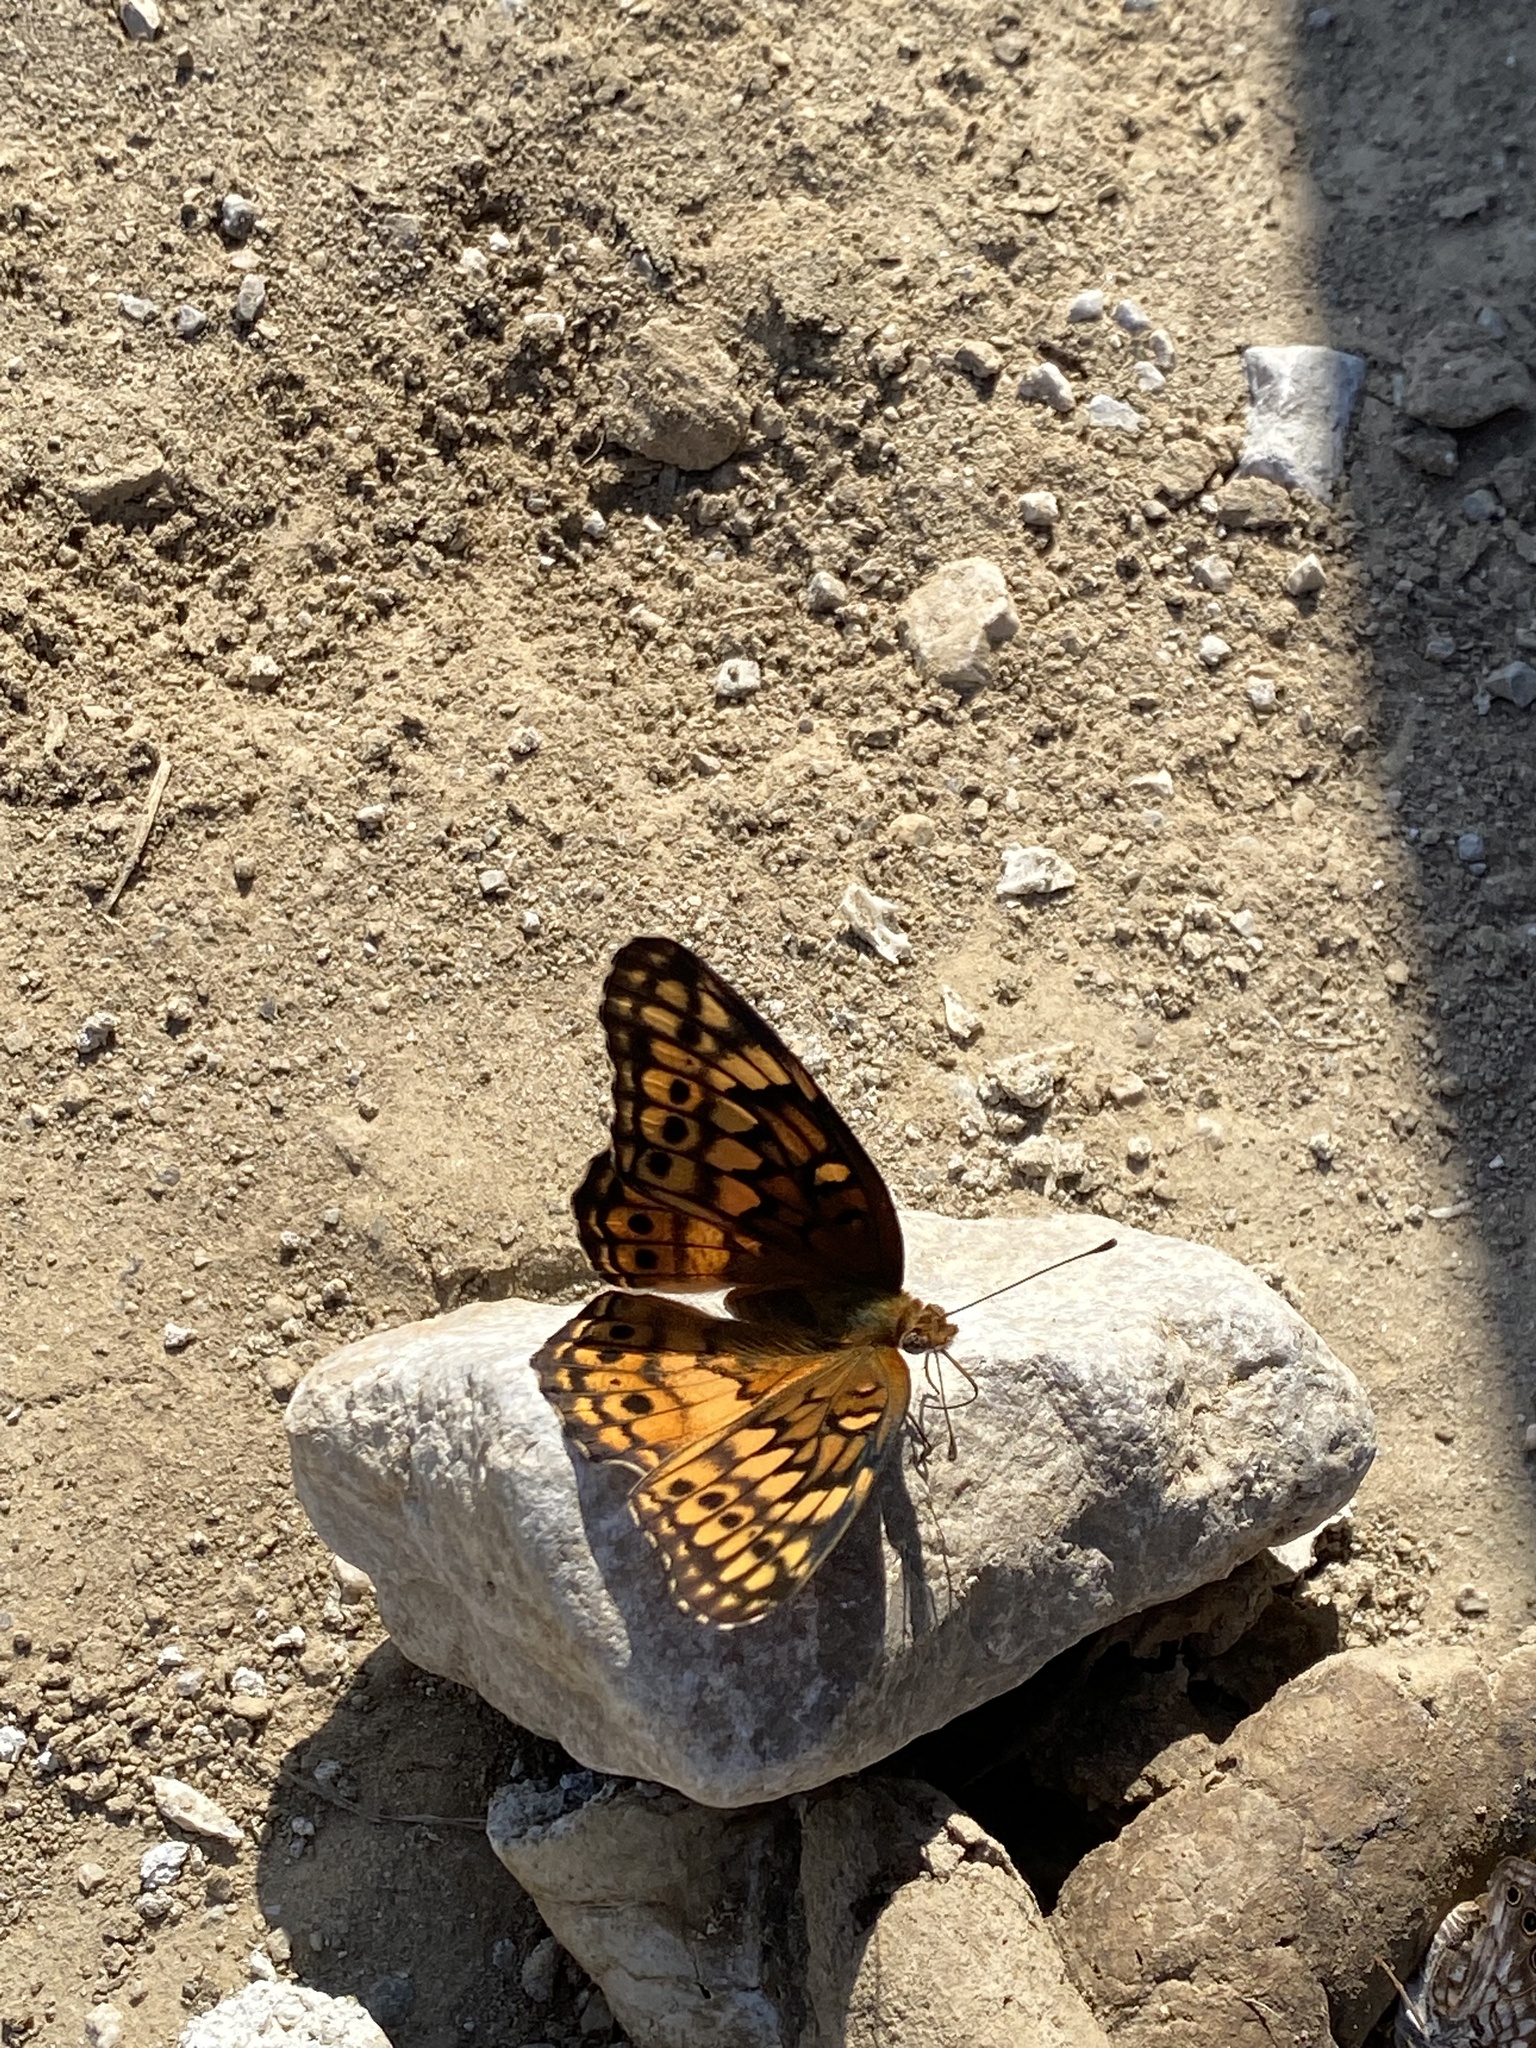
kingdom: Animalia
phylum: Arthropoda
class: Insecta
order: Lepidoptera
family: Nymphalidae
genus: Euptoieta
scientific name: Euptoieta claudia
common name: Variegated fritillary
